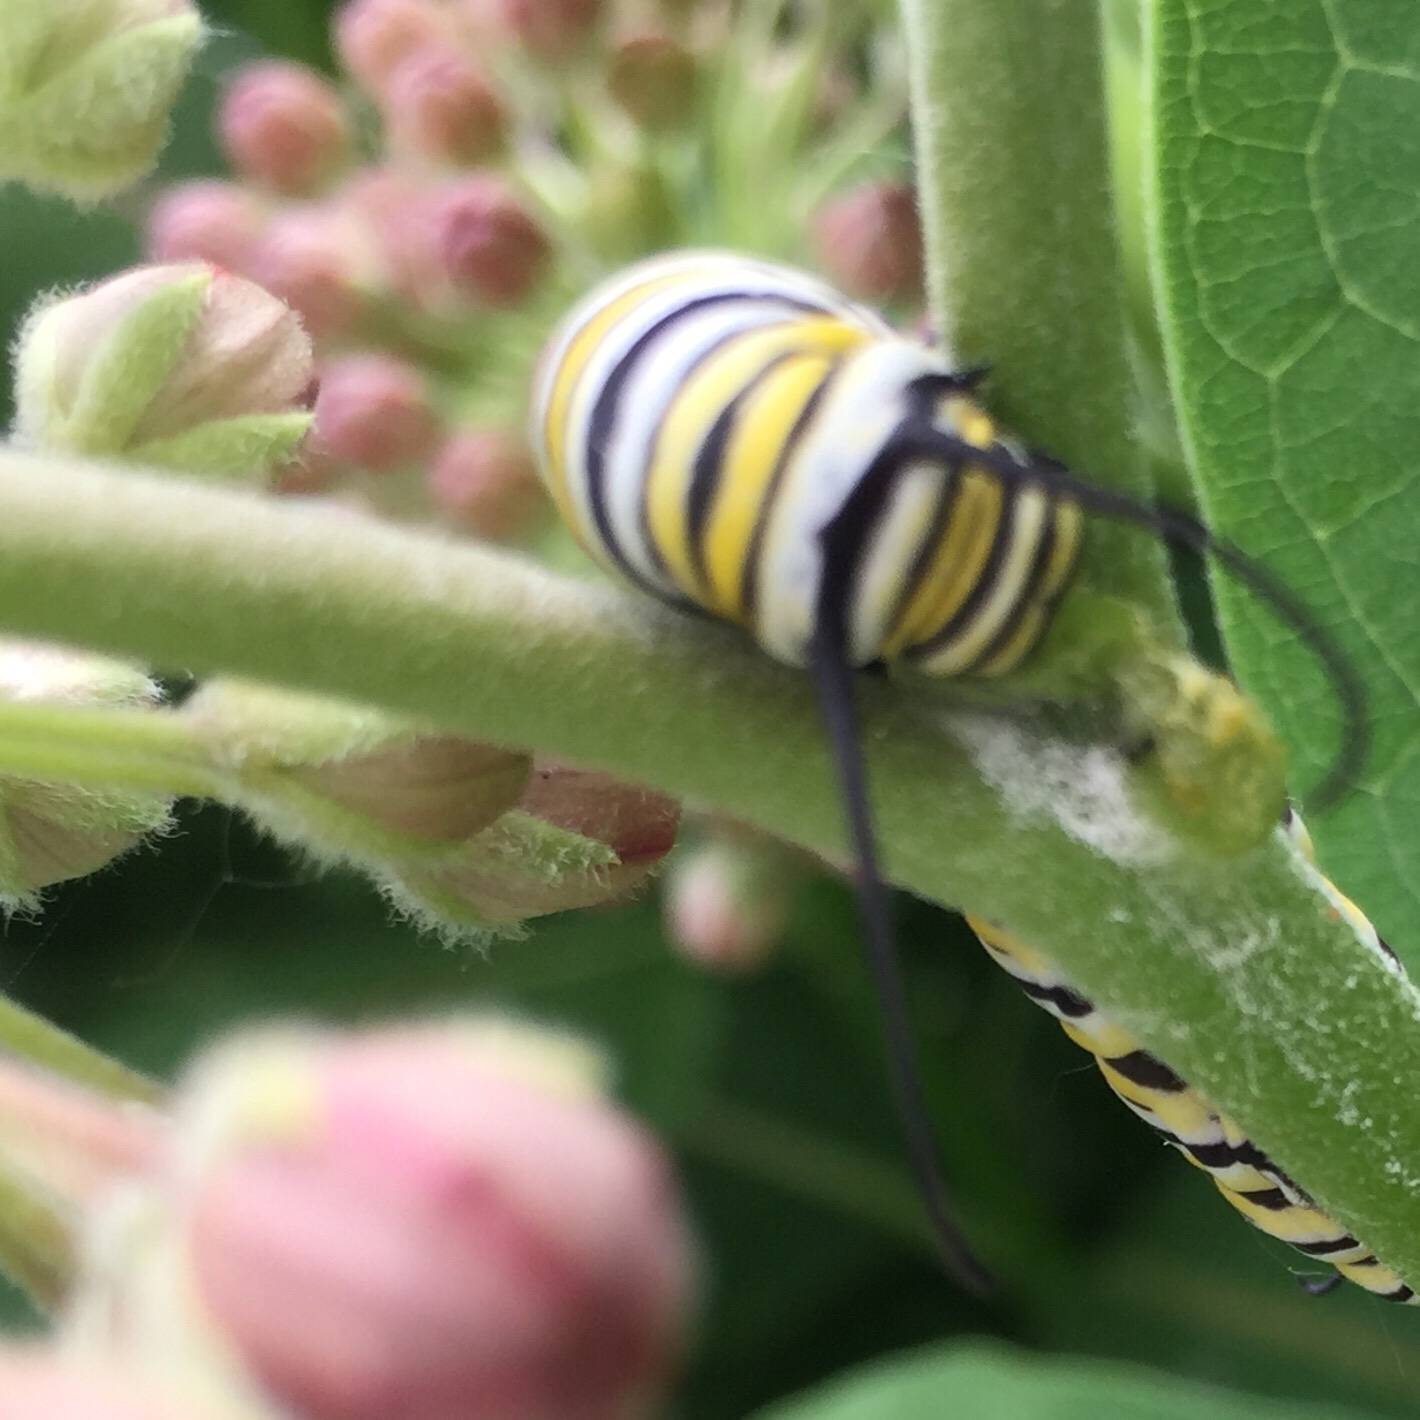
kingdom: Animalia
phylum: Arthropoda
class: Insecta
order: Lepidoptera
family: Nymphalidae
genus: Danaus
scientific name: Danaus plexippus
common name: Monarch
